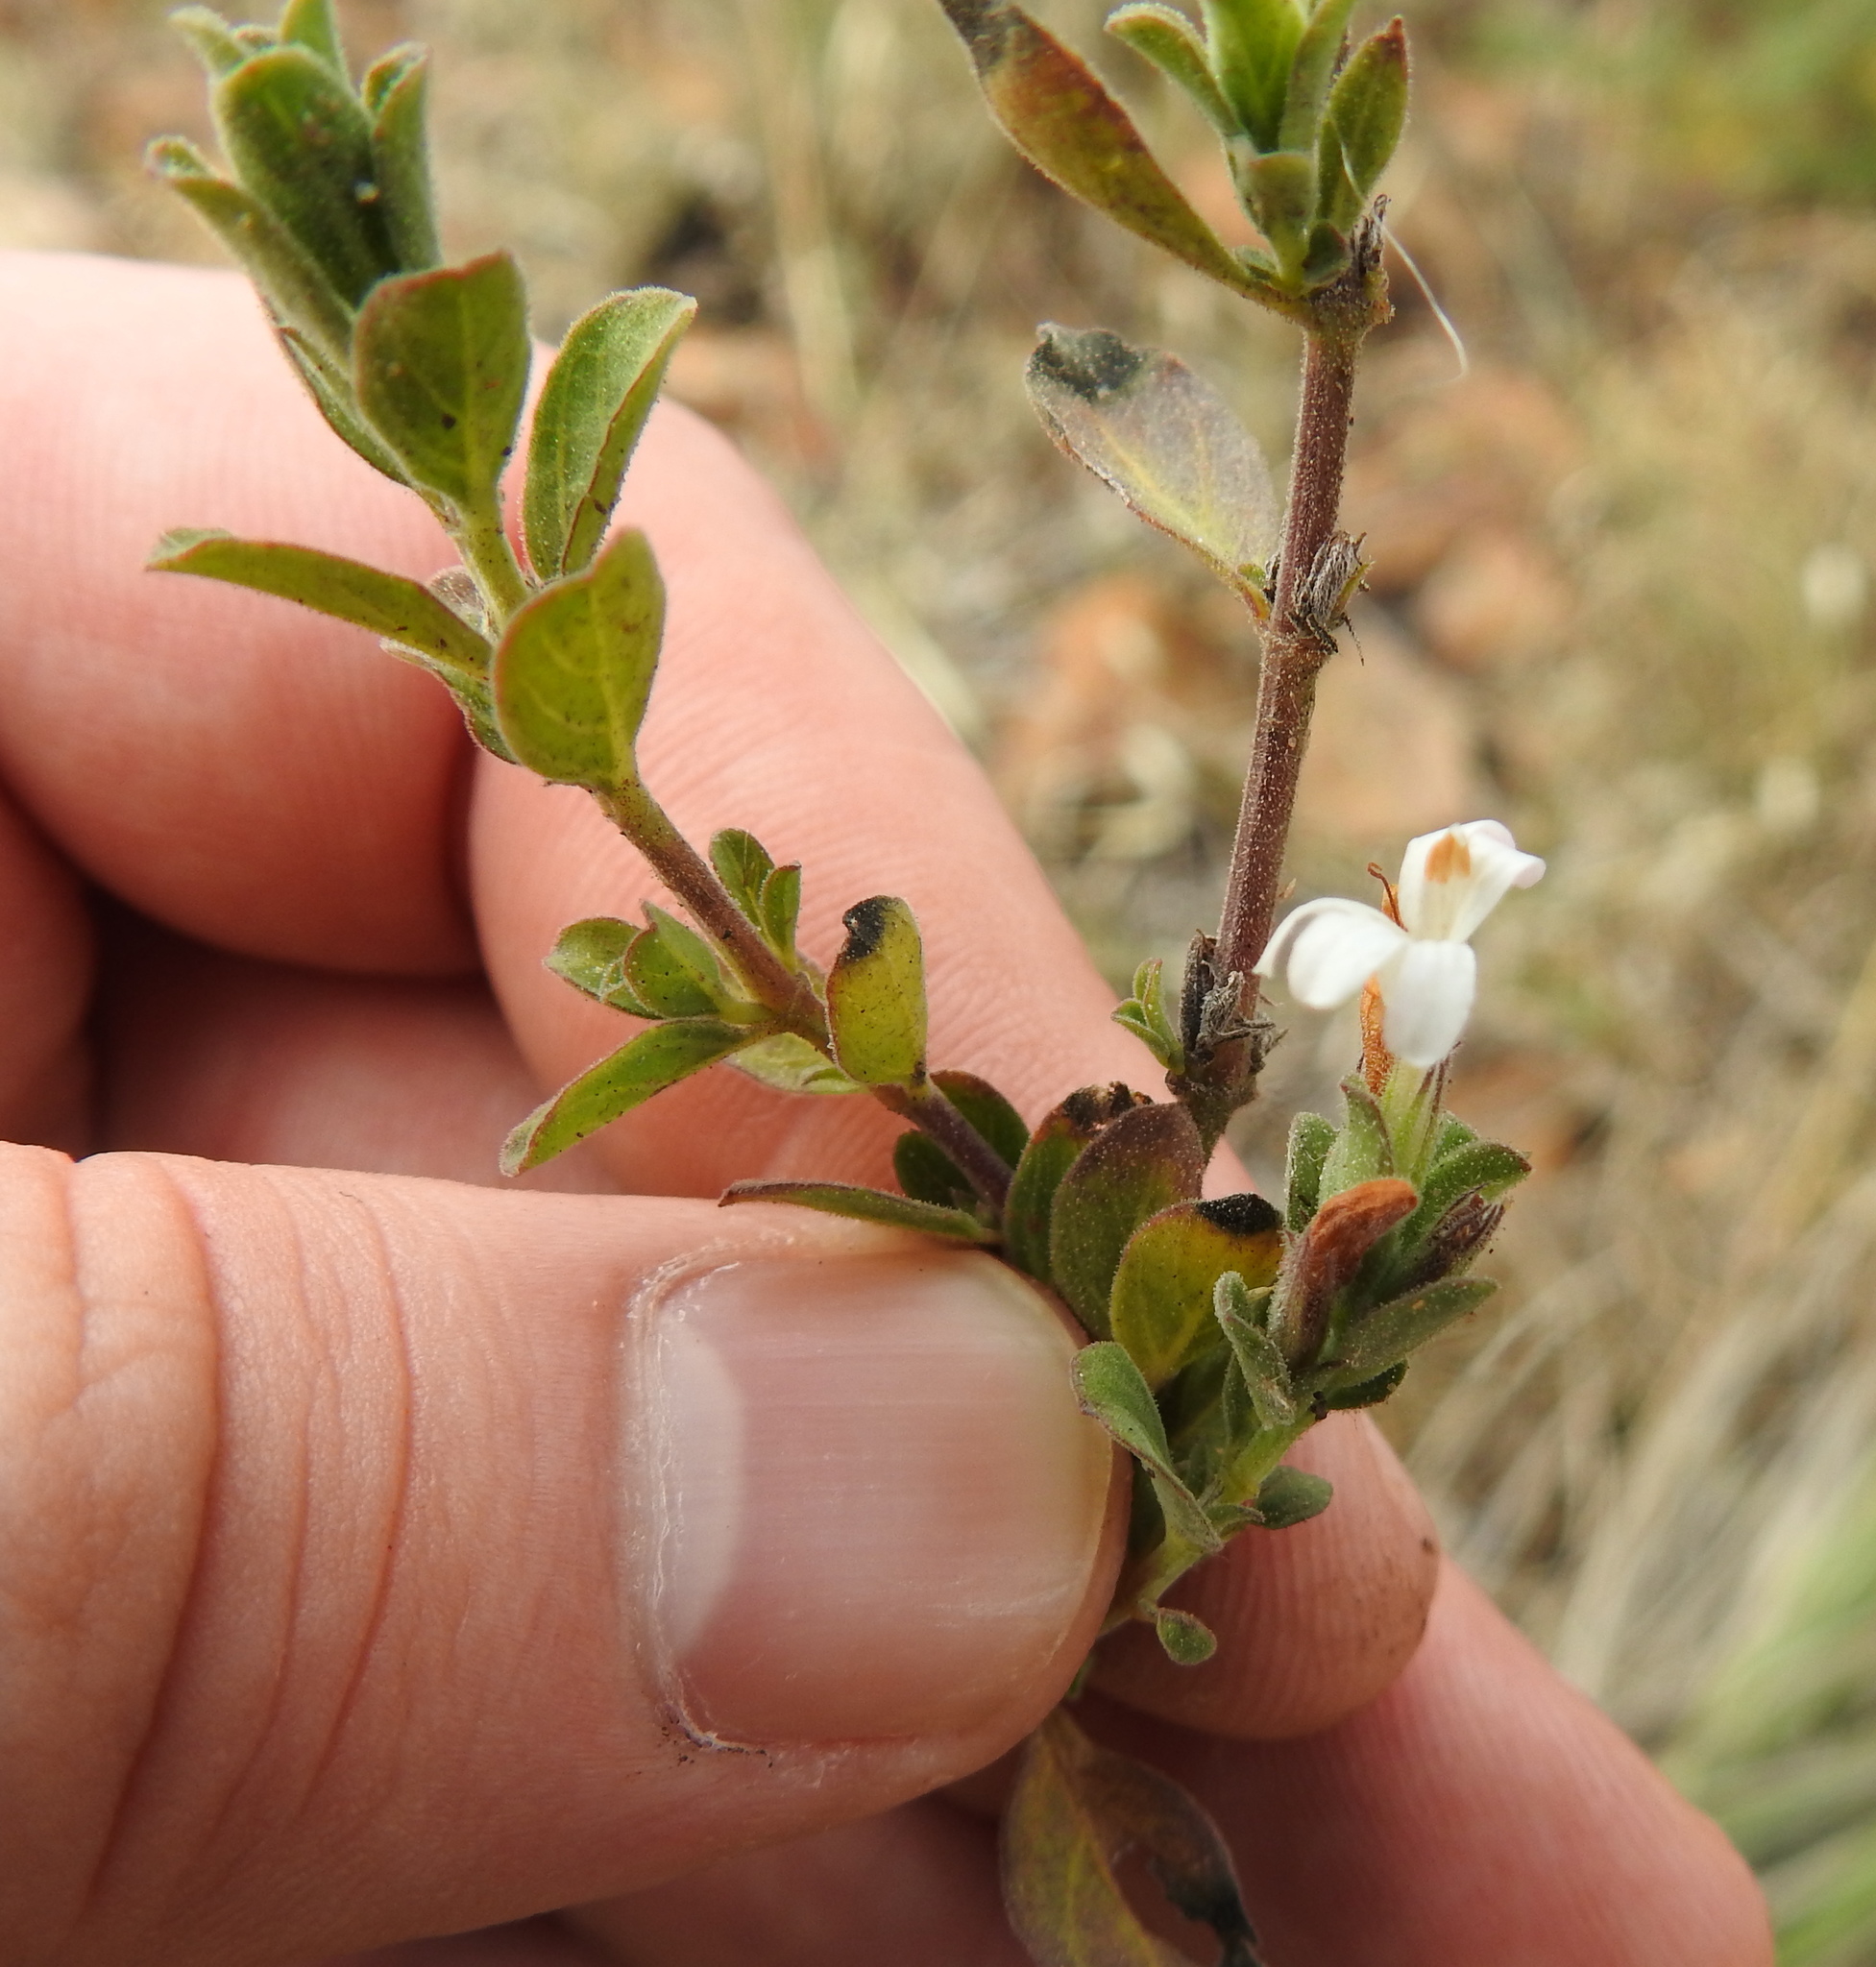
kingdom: Plantae
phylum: Tracheophyta
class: Magnoliopsida
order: Lamiales
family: Acanthaceae
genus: Dyschoriste
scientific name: Dyschoriste setigera
